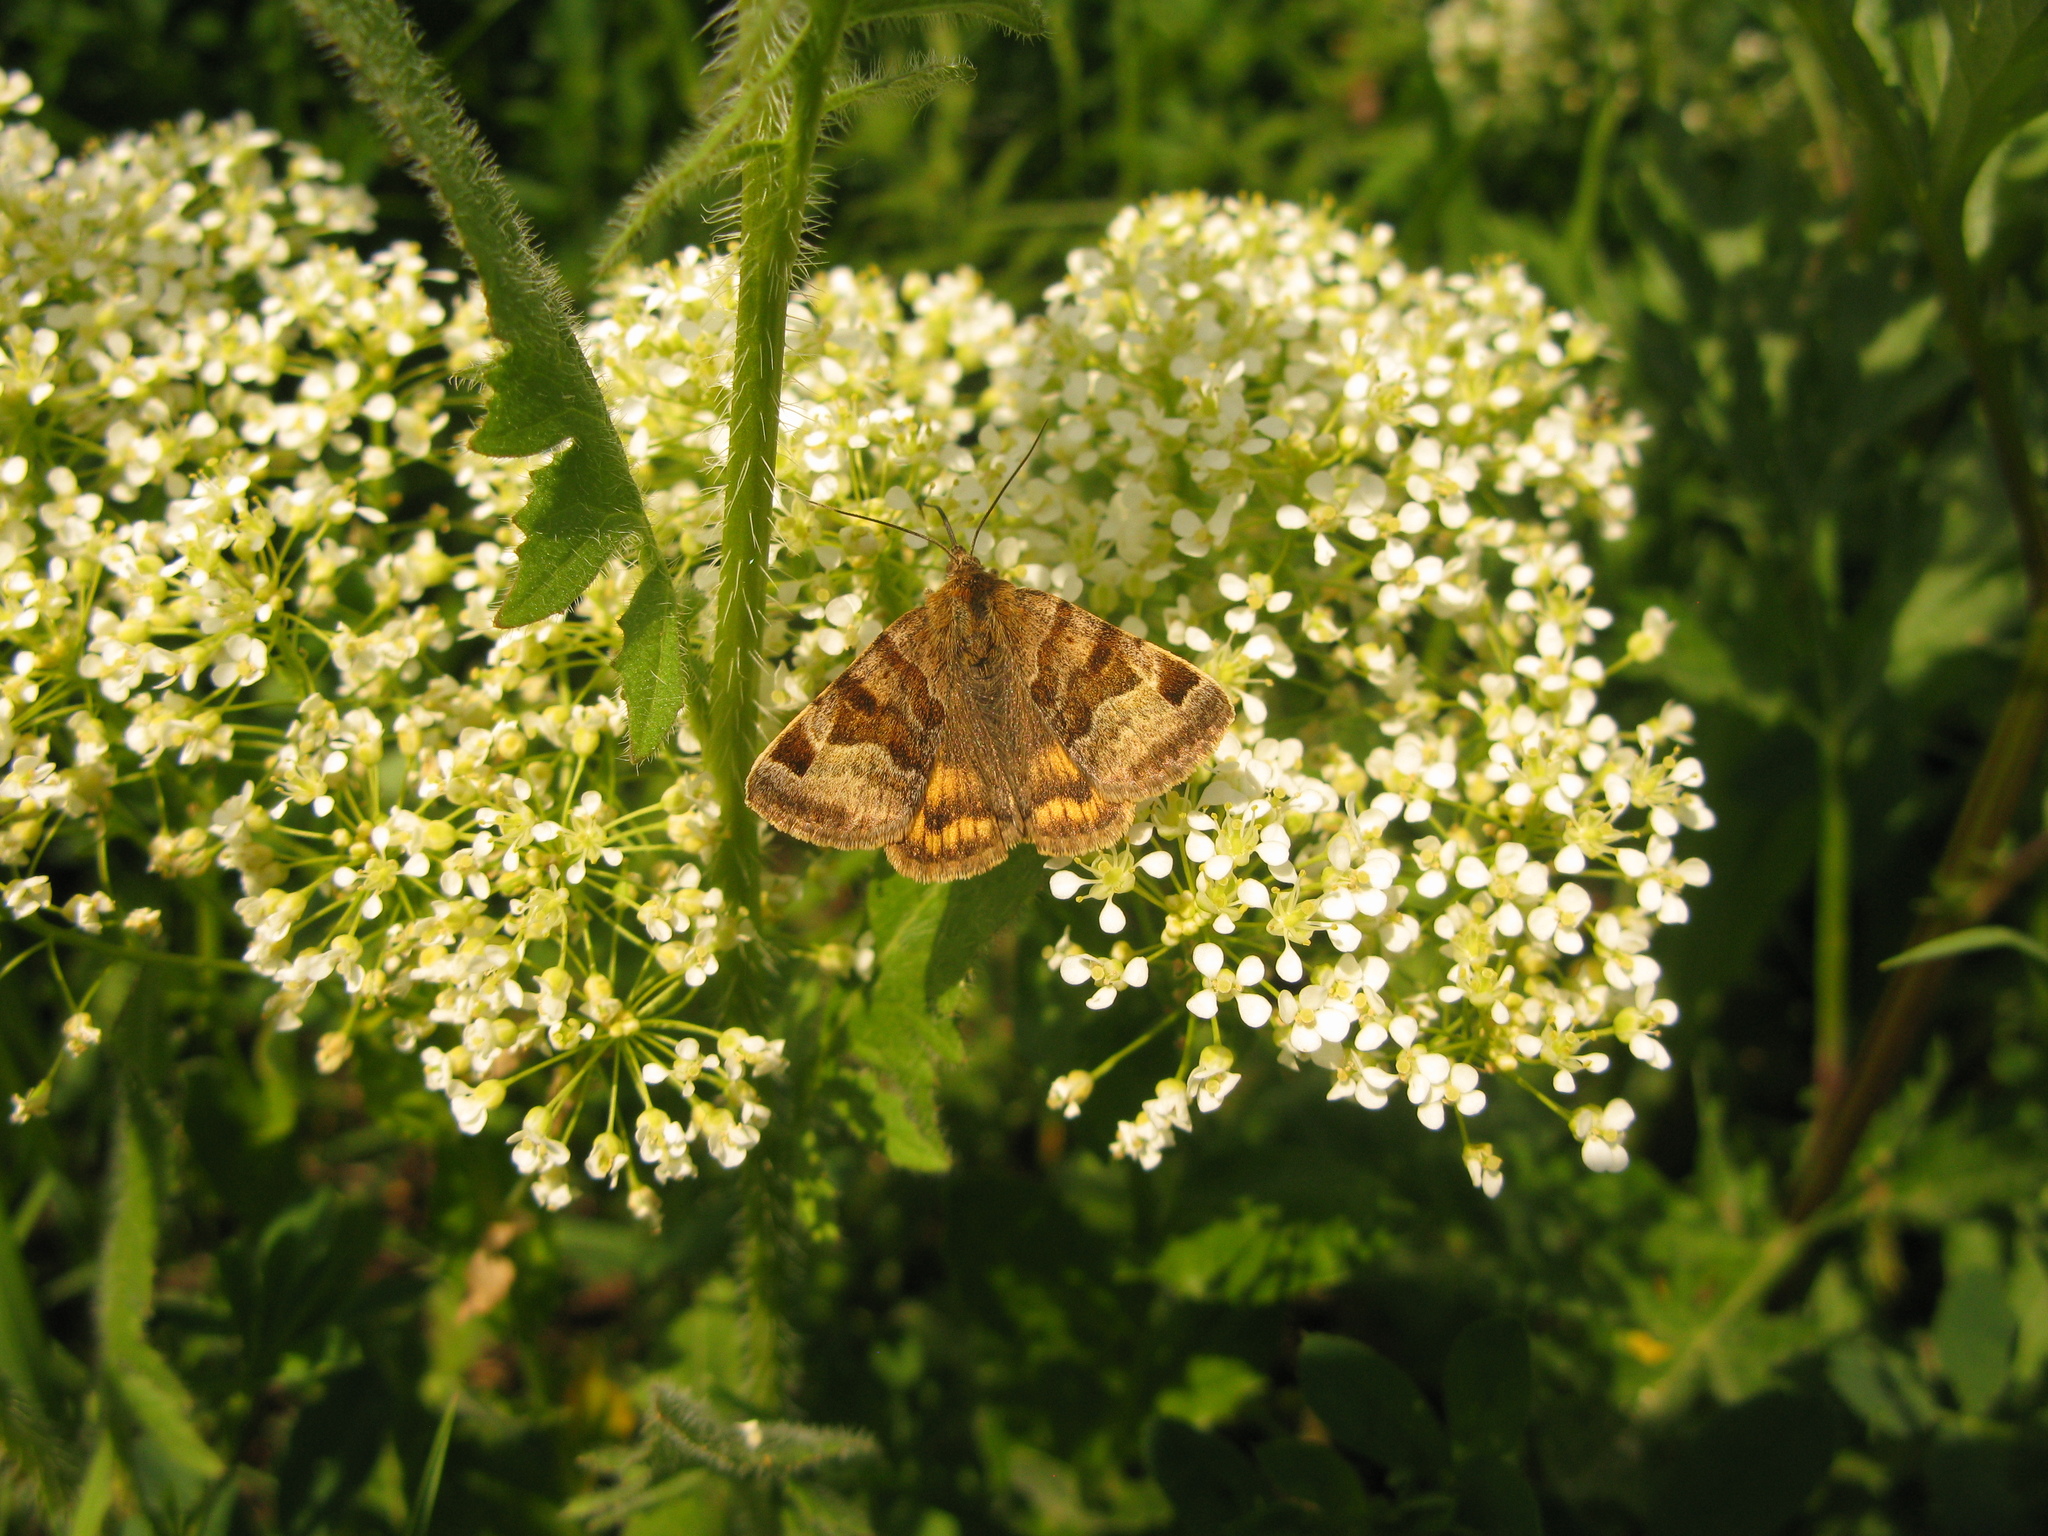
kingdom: Animalia
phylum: Arthropoda
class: Insecta
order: Lepidoptera
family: Erebidae
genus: Euclidia
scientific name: Euclidia glyphica
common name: Burnet companion
